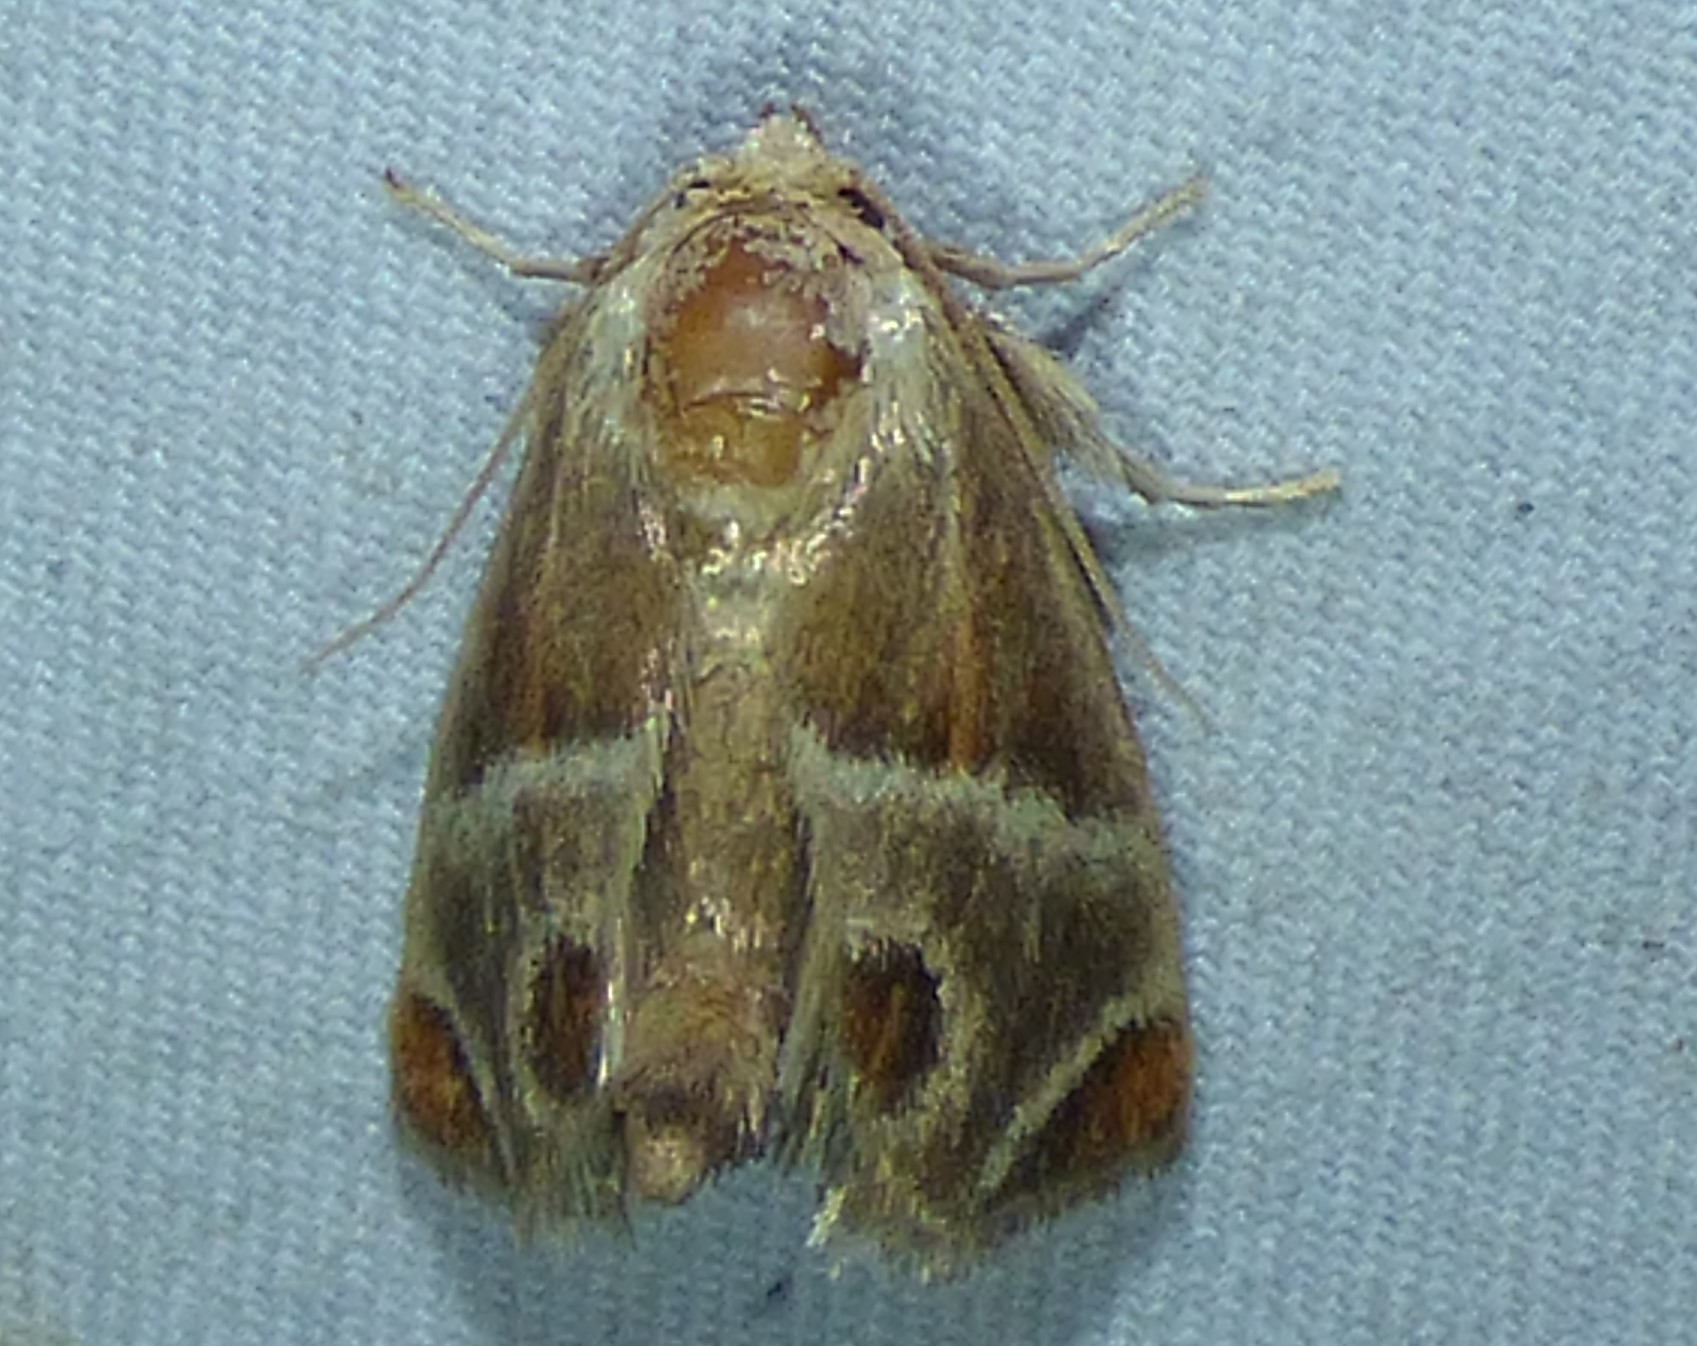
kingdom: Animalia
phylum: Arthropoda
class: Insecta
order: Lepidoptera
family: Limacodidae
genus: Apoda
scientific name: Apoda biguttata
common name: Shagreened slug moth
